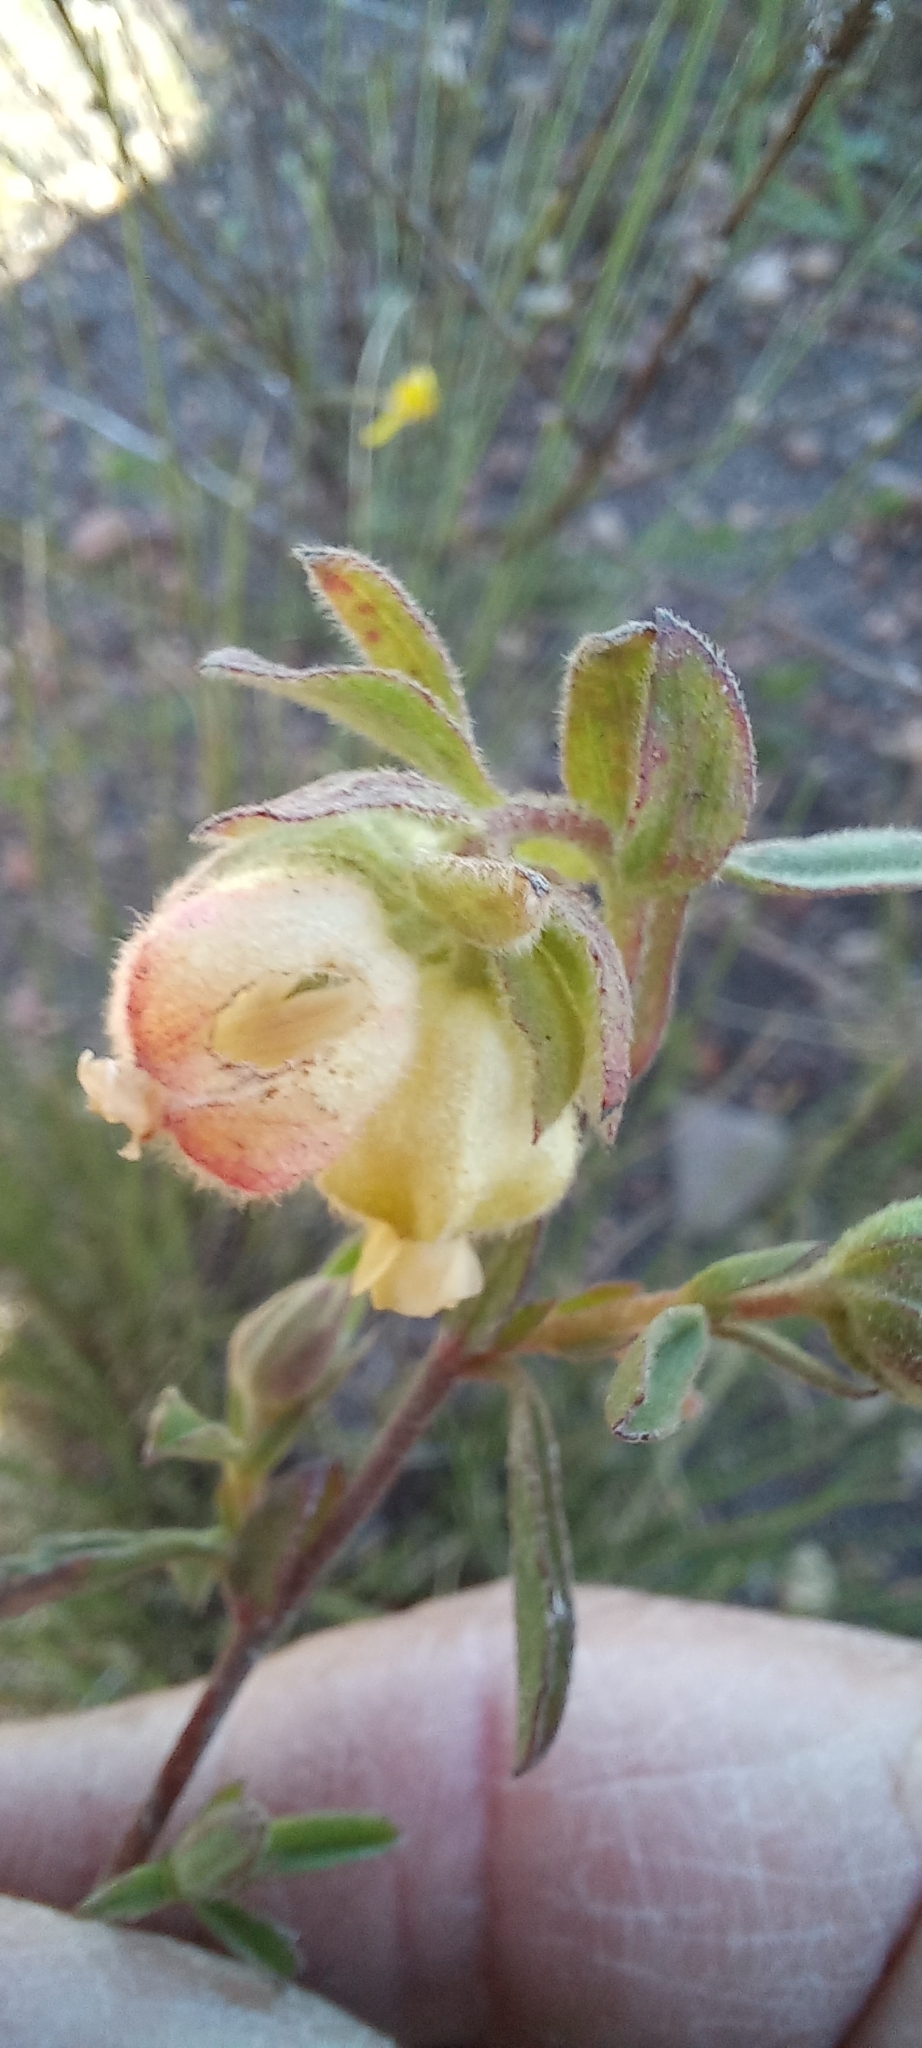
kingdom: Plantae
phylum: Tracheophyta
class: Magnoliopsida
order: Malvales
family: Malvaceae
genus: Hermannia
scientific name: Hermannia hyssopifolia
